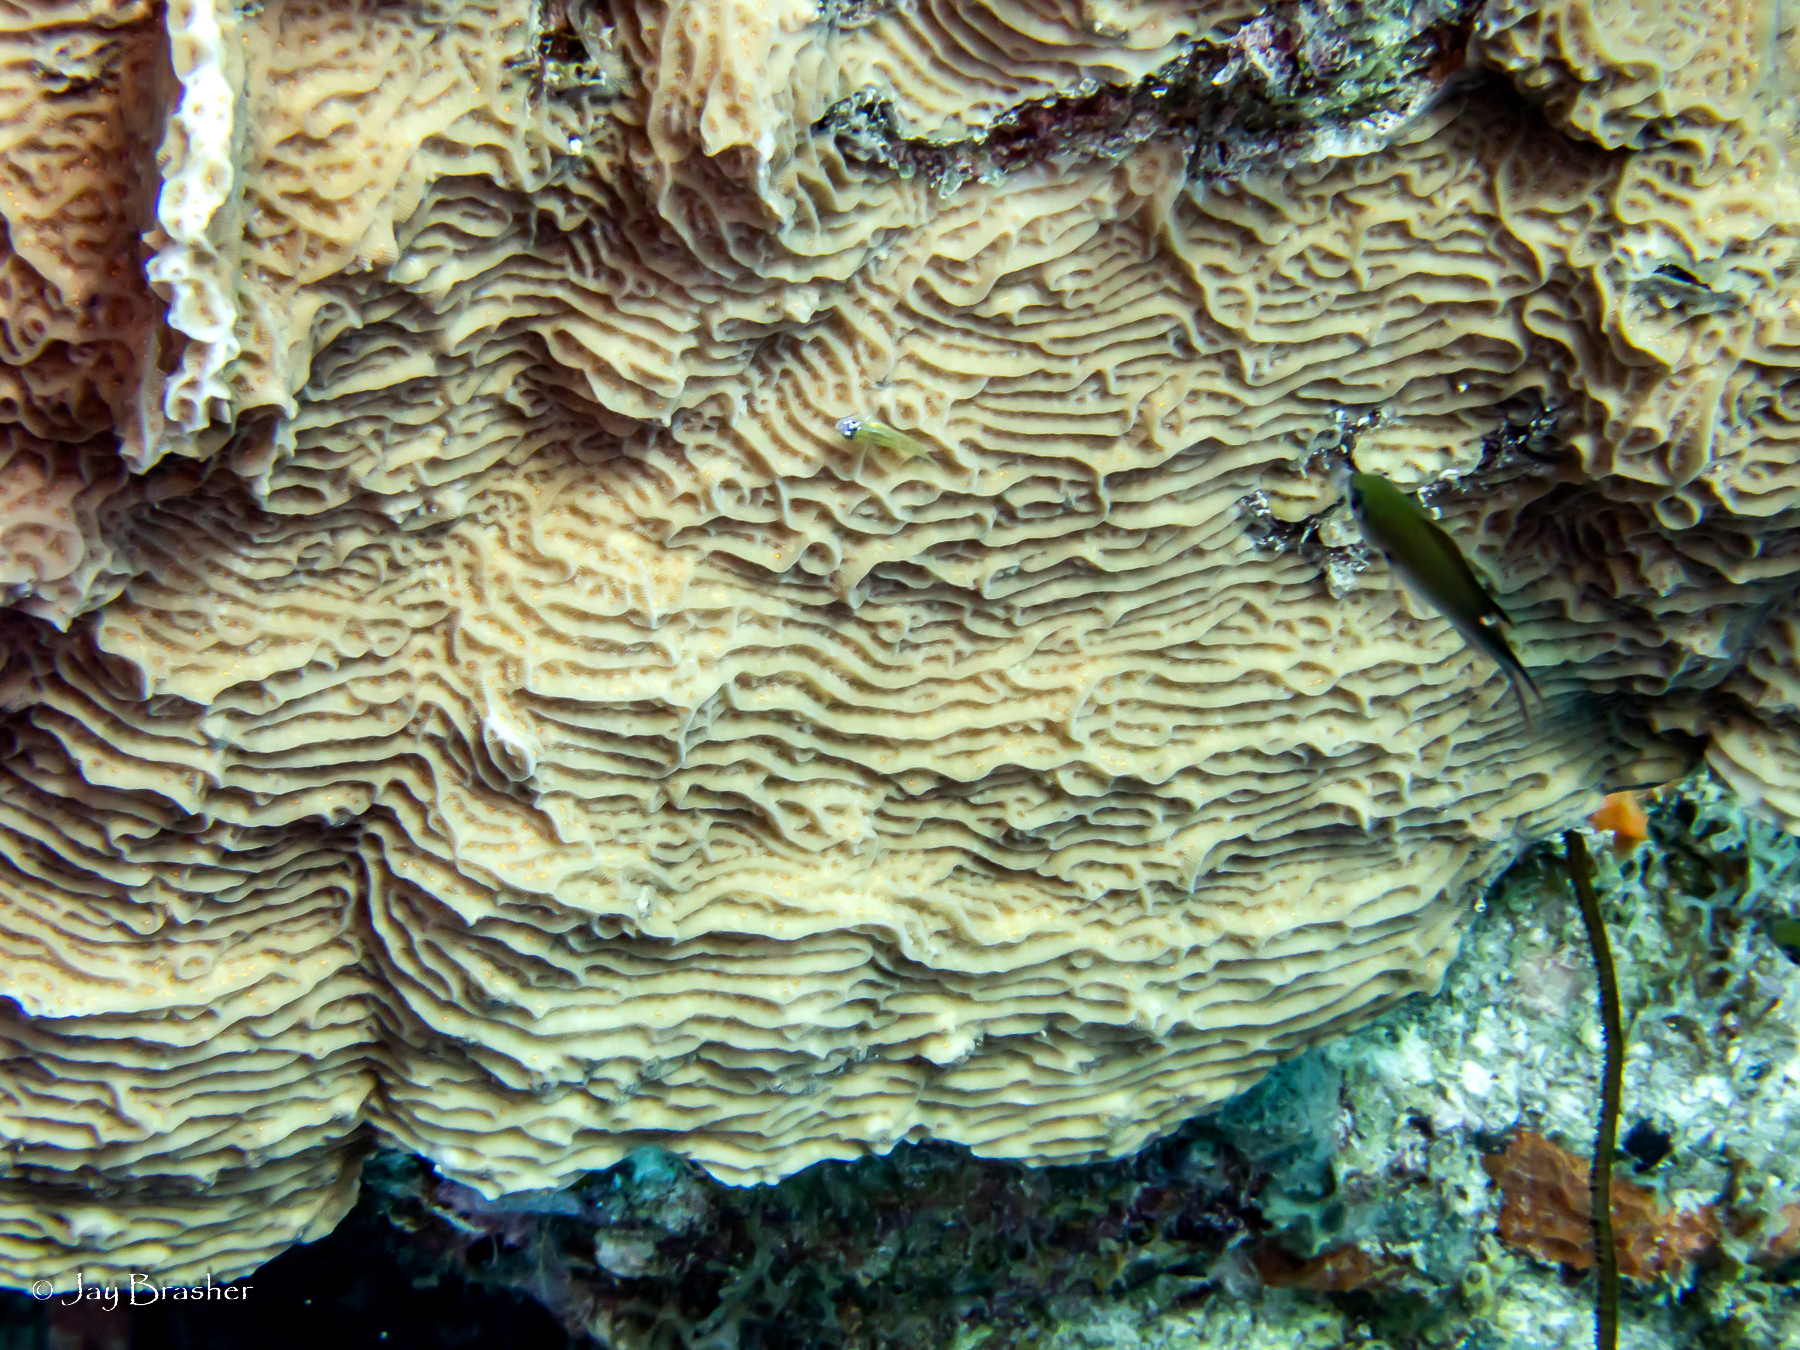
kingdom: Animalia
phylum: Chordata
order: Perciformes
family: Pomacentridae
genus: Chromis
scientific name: Chromis multilineata
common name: Brown chromis
